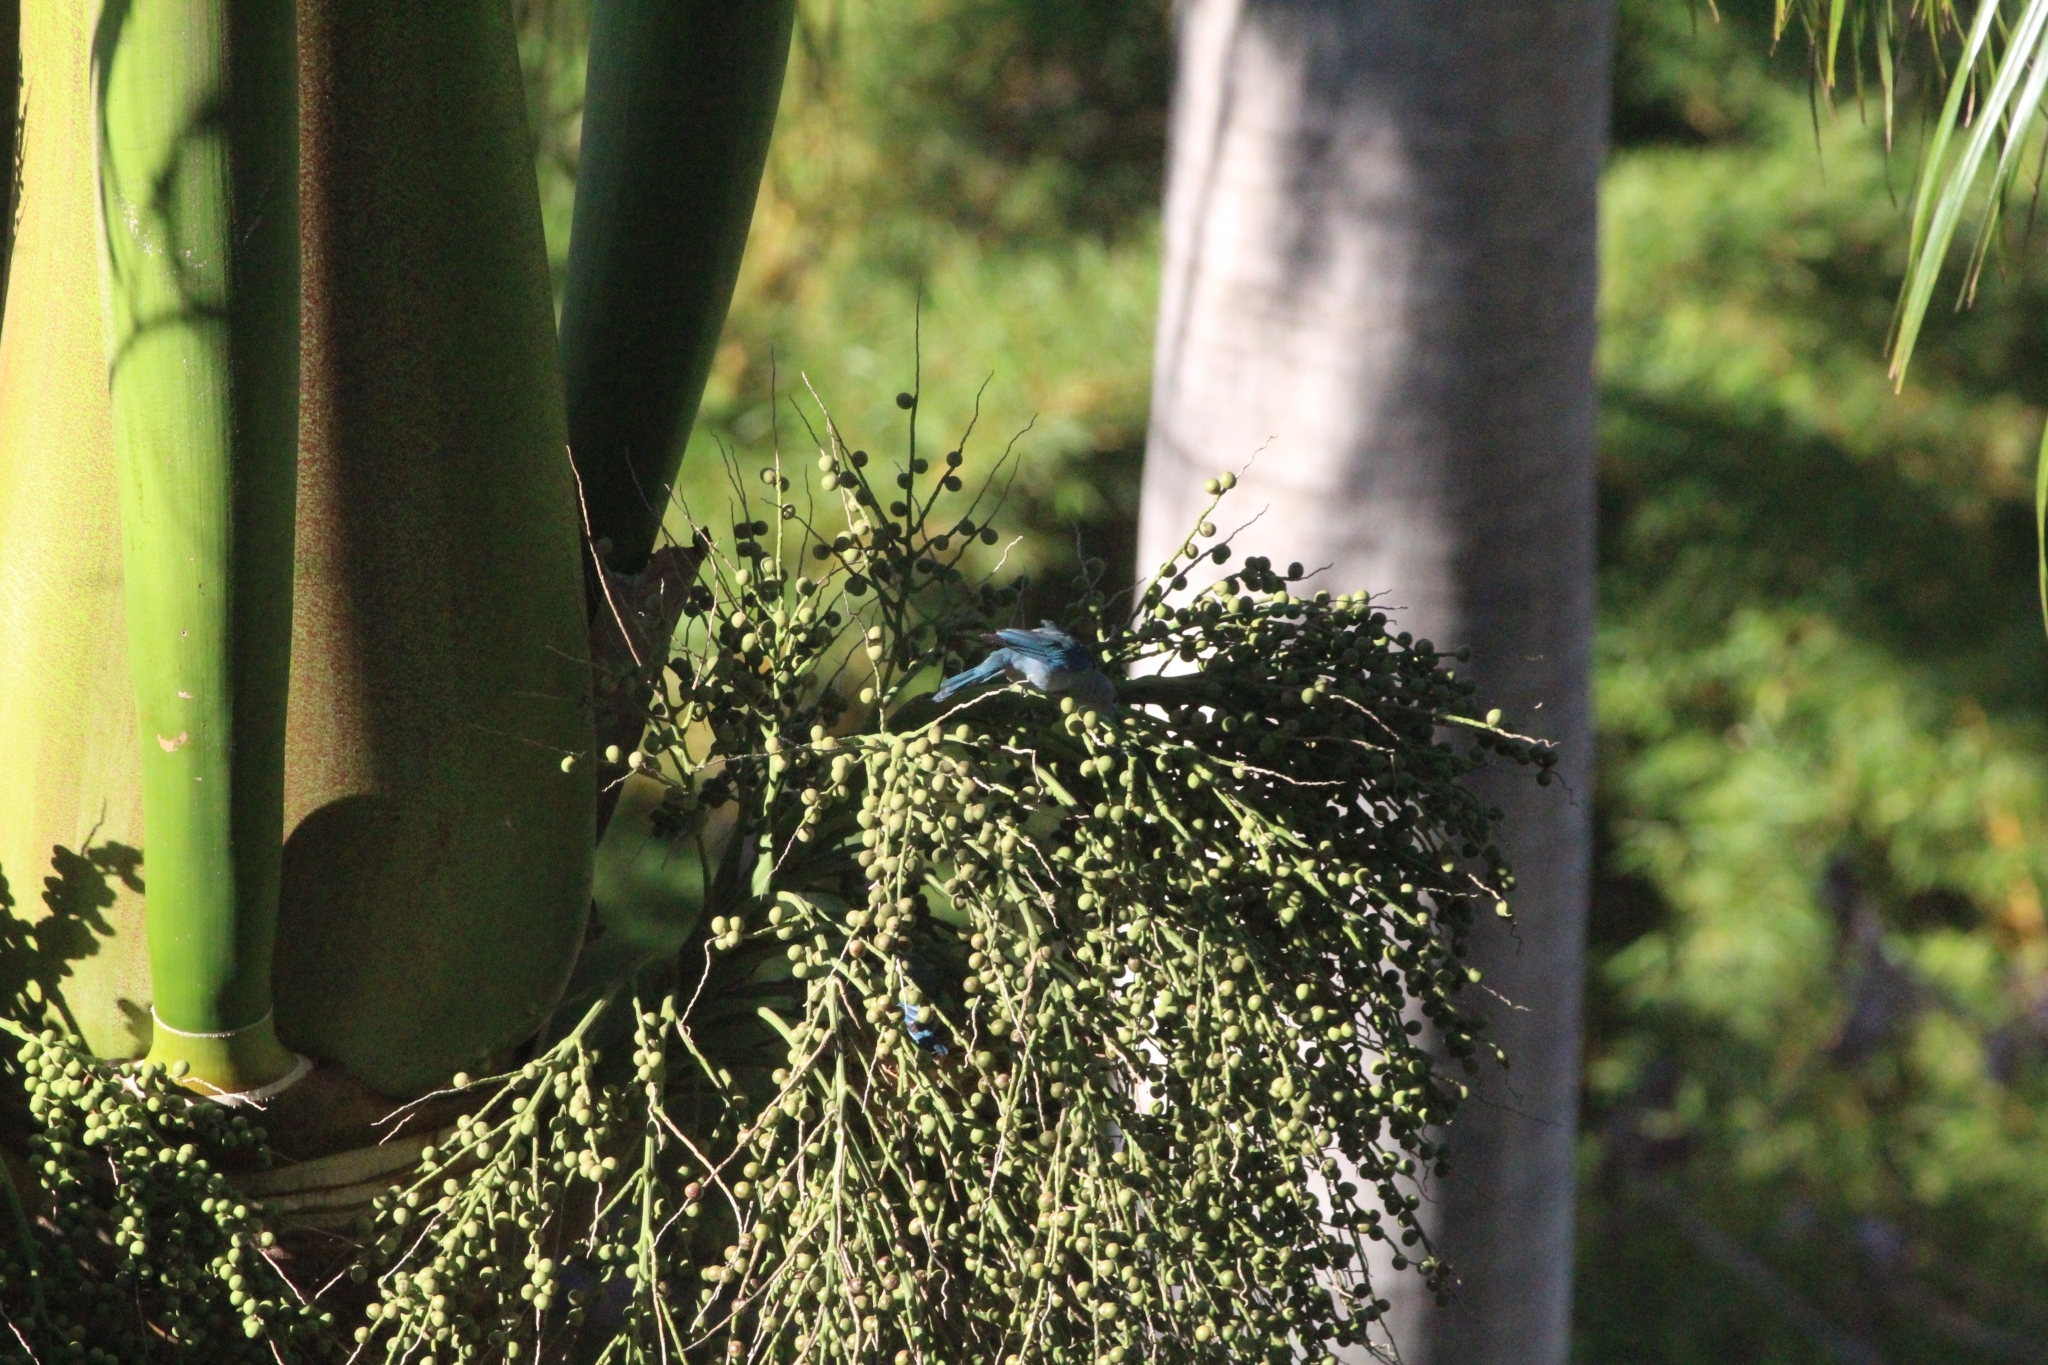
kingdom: Animalia
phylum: Chordata
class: Aves
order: Passeriformes
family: Thraupidae
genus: Thraupis
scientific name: Thraupis episcopus
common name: Blue-grey tanager
